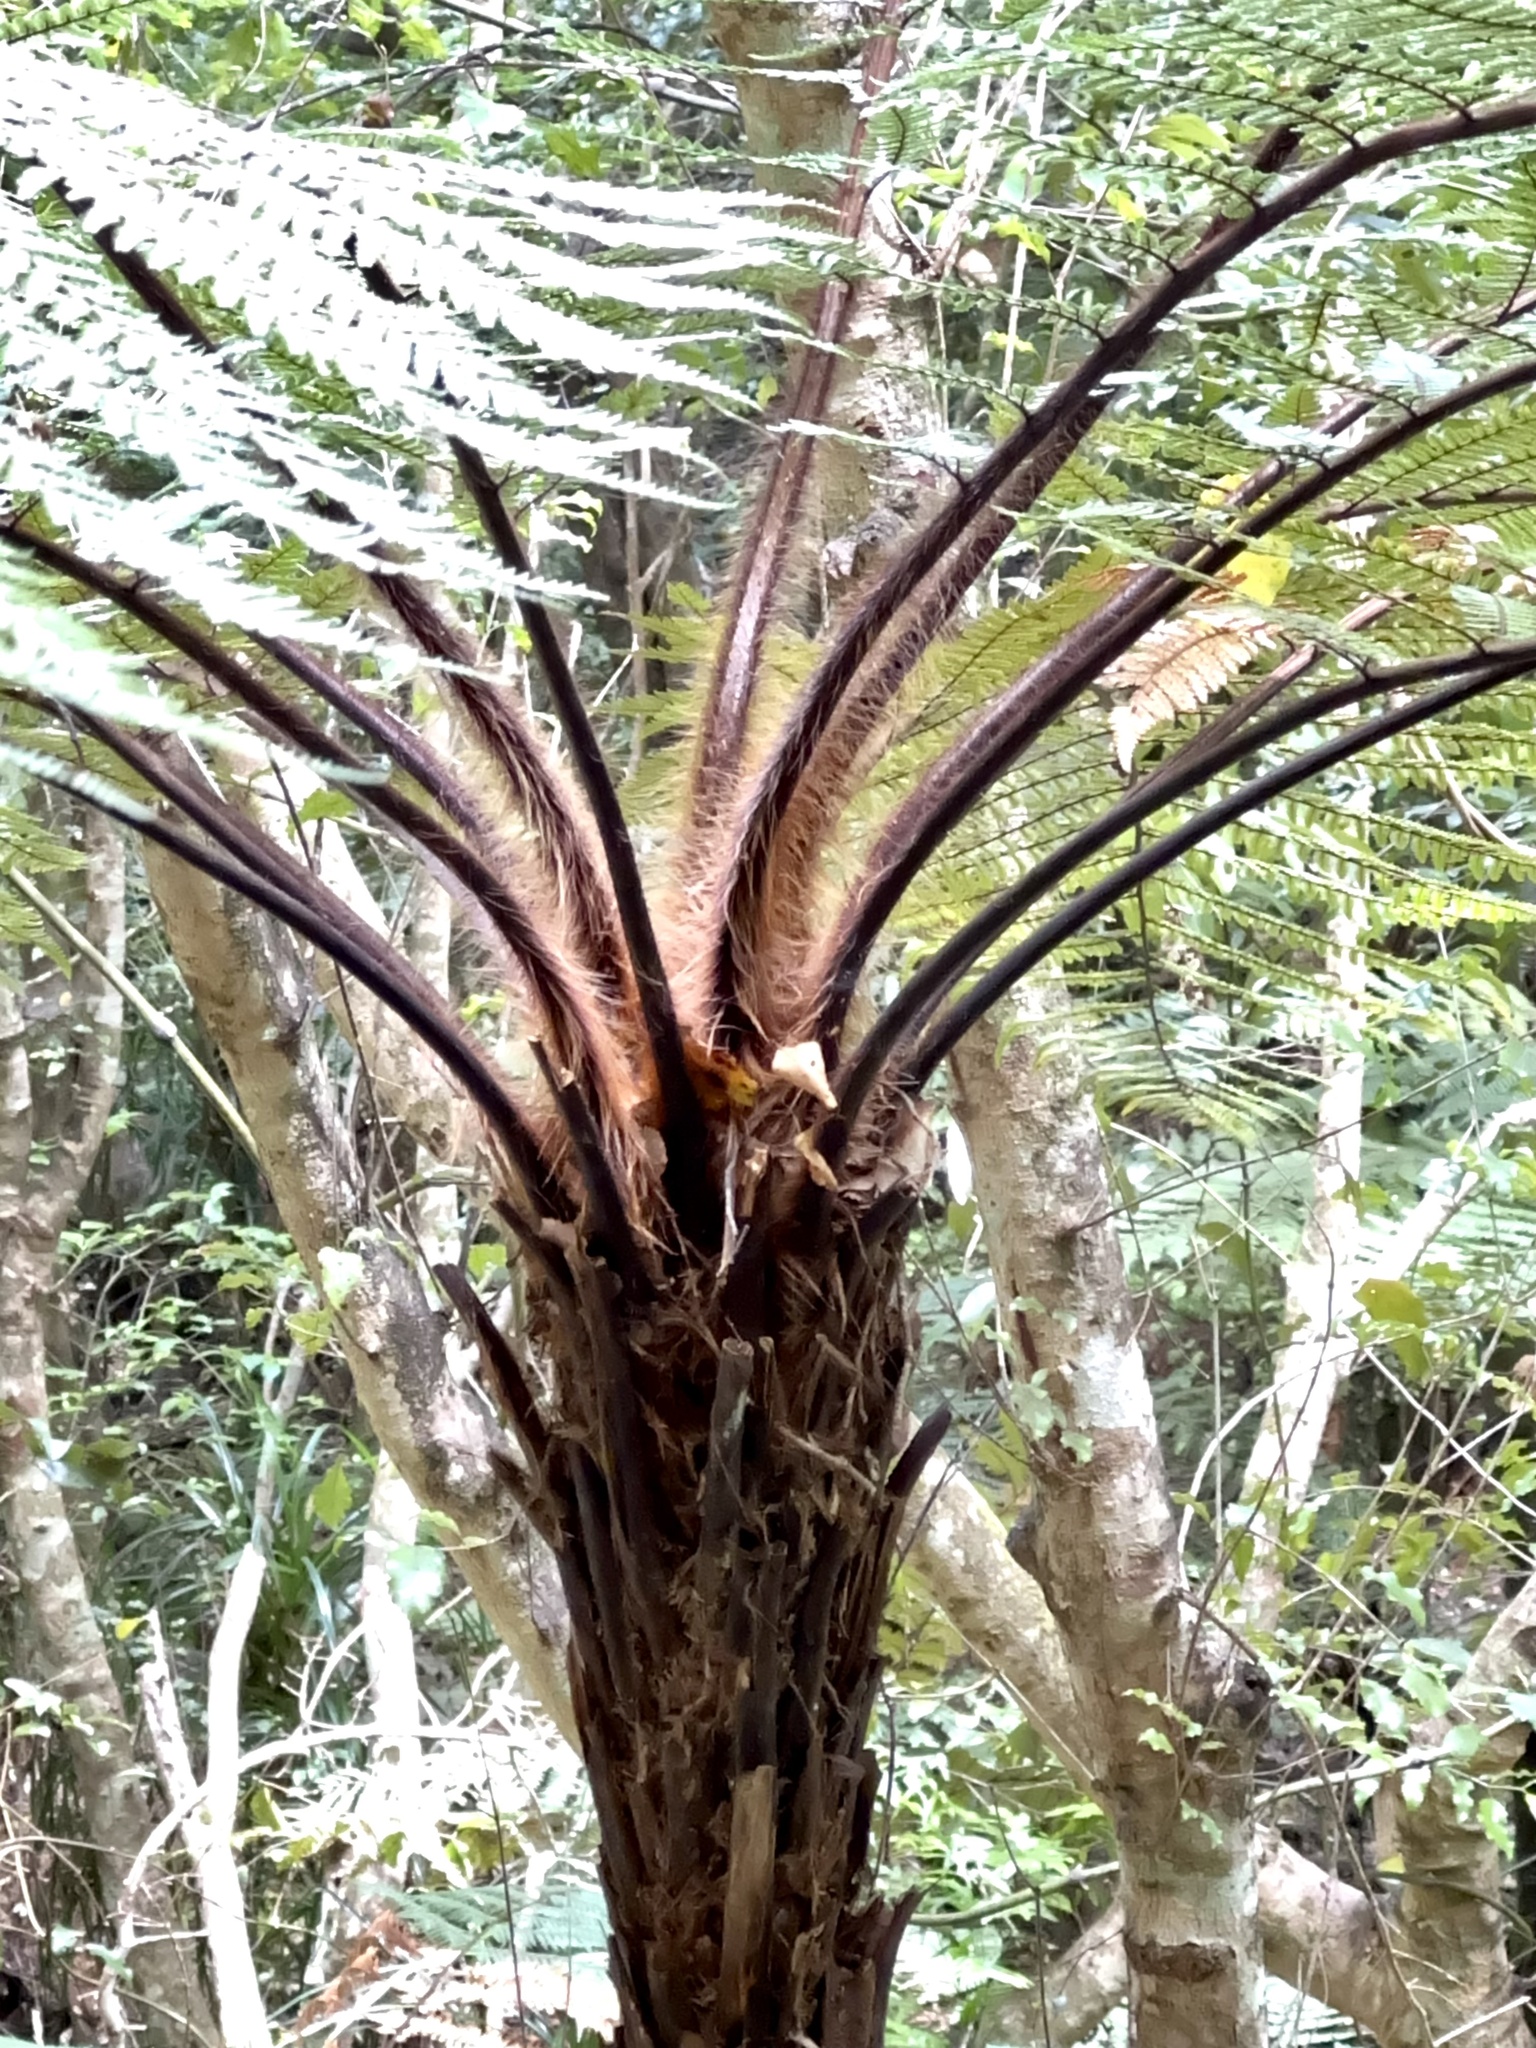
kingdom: Plantae
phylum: Tracheophyta
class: Polypodiopsida
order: Cyatheales
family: Dicksoniaceae
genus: Dicksonia
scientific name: Dicksonia squarrosa
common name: Hard treefern
